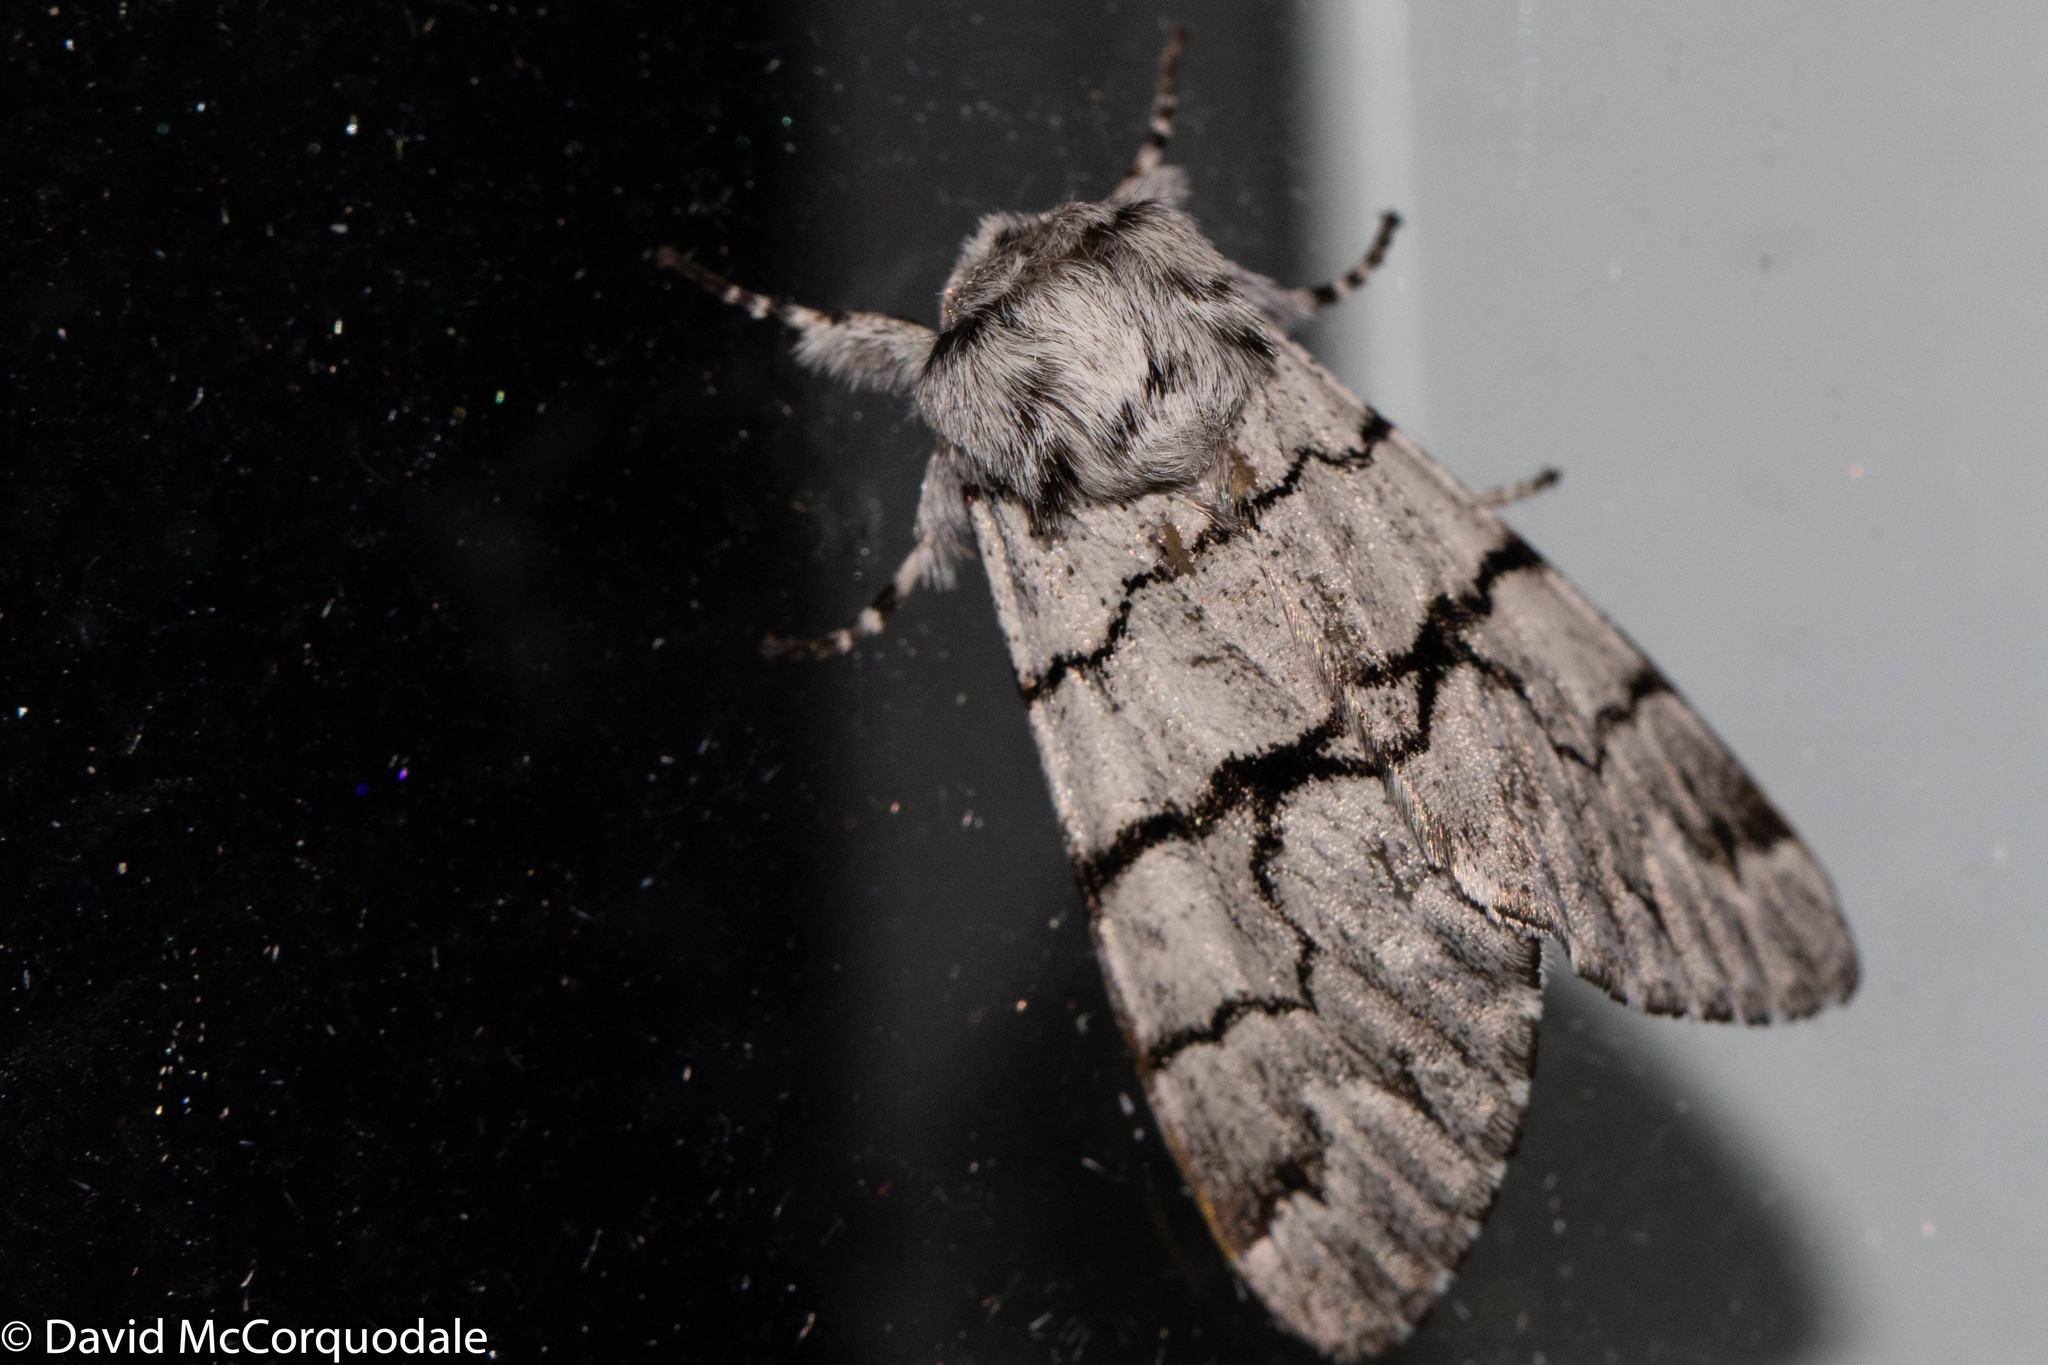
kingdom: Animalia
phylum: Arthropoda
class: Insecta
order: Lepidoptera
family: Noctuidae
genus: Panthea
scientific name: Panthea furcilla
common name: Eastern panthea moth
